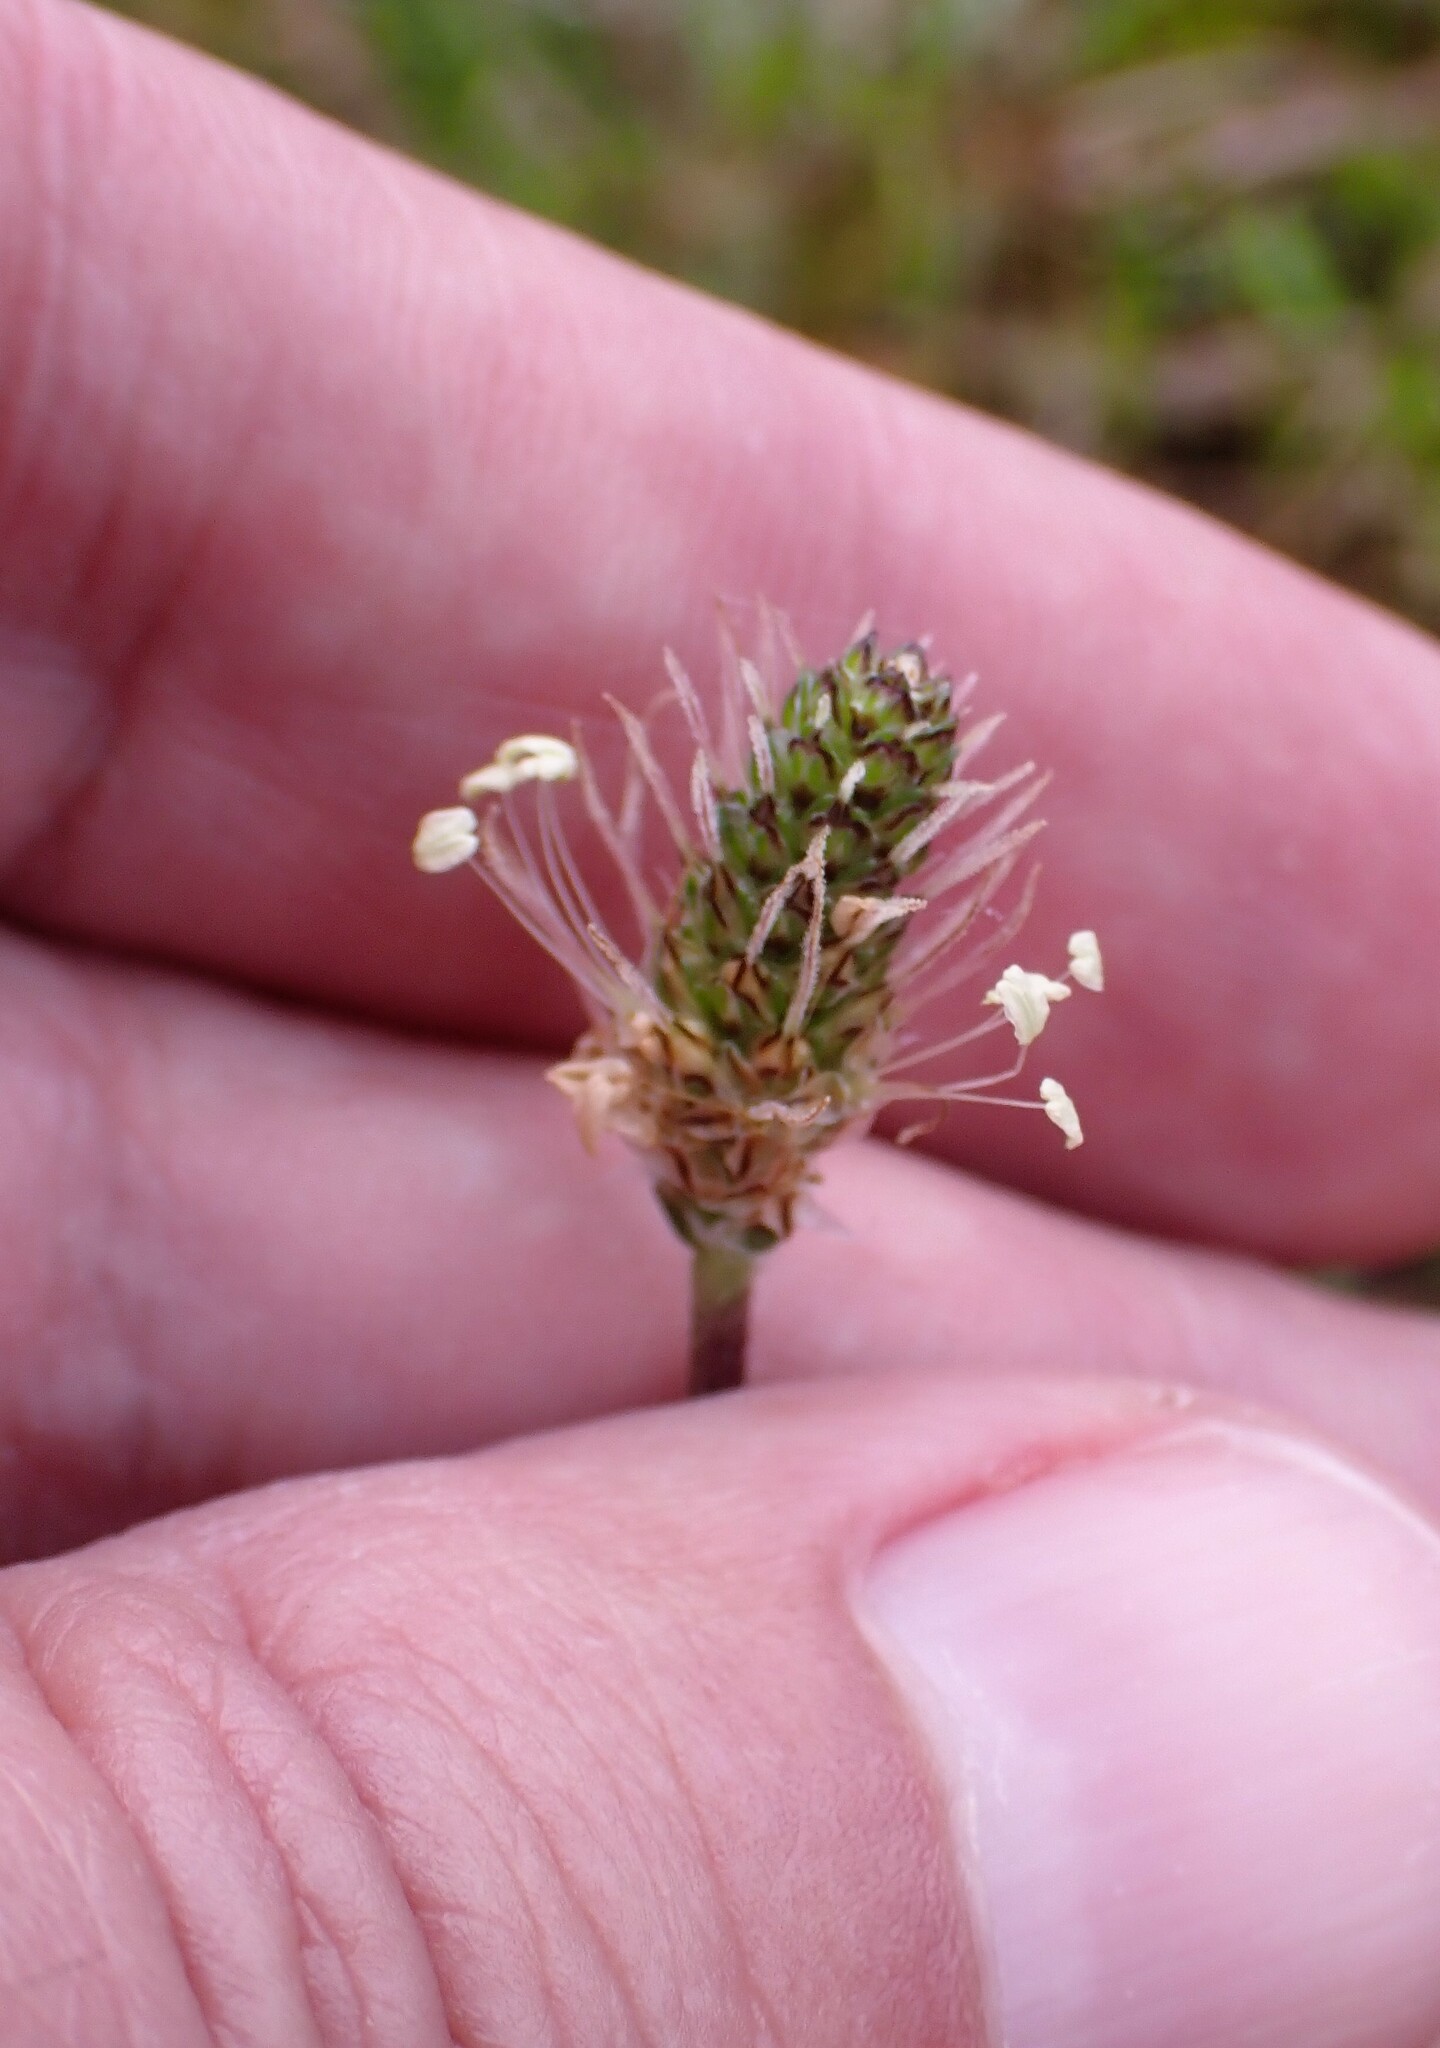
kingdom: Plantae
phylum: Tracheophyta
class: Magnoliopsida
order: Lamiales
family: Plantaginaceae
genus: Plantago
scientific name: Plantago lanceolata
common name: Ribwort plantain
